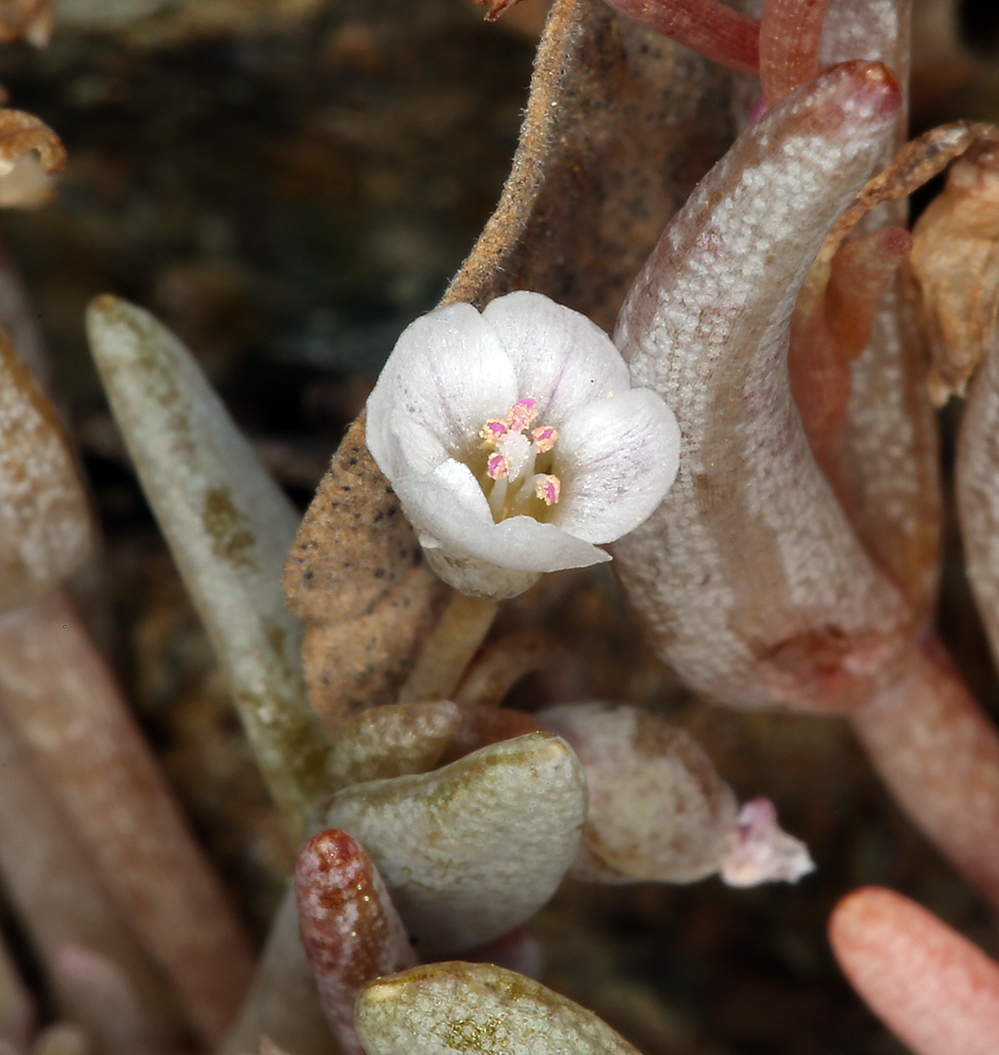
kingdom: Plantae
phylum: Tracheophyta
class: Magnoliopsida
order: Caryophyllales
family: Montiaceae
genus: Claytonia
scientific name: Claytonia exigua
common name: Pale spring beauty
